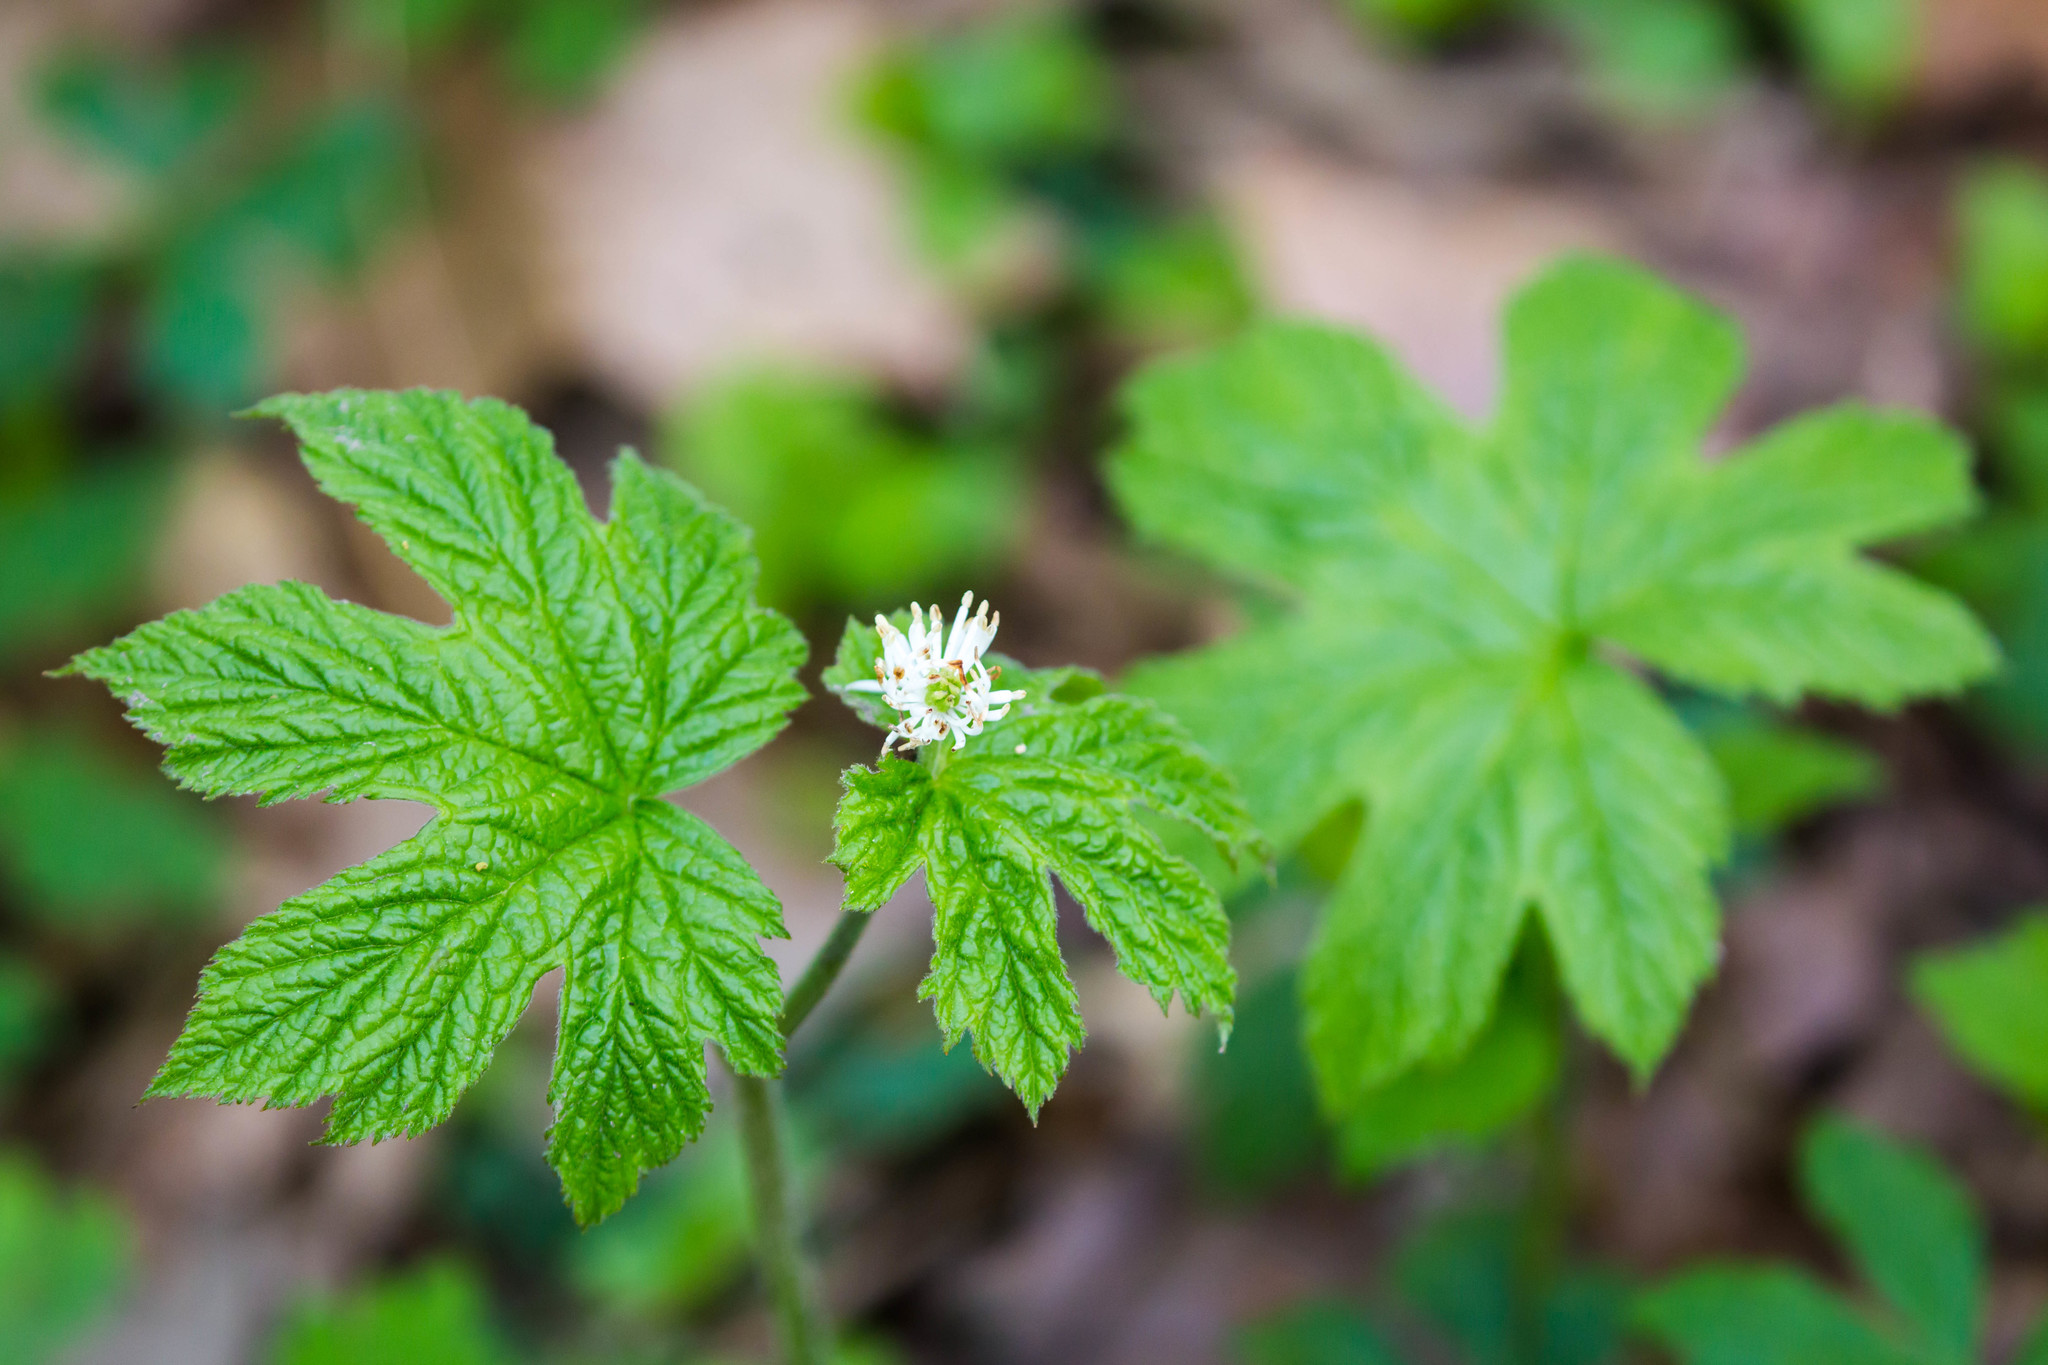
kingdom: Plantae
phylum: Tracheophyta
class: Magnoliopsida
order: Ranunculales
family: Ranunculaceae
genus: Hydrastis
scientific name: Hydrastis canadensis
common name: Goldenseal
